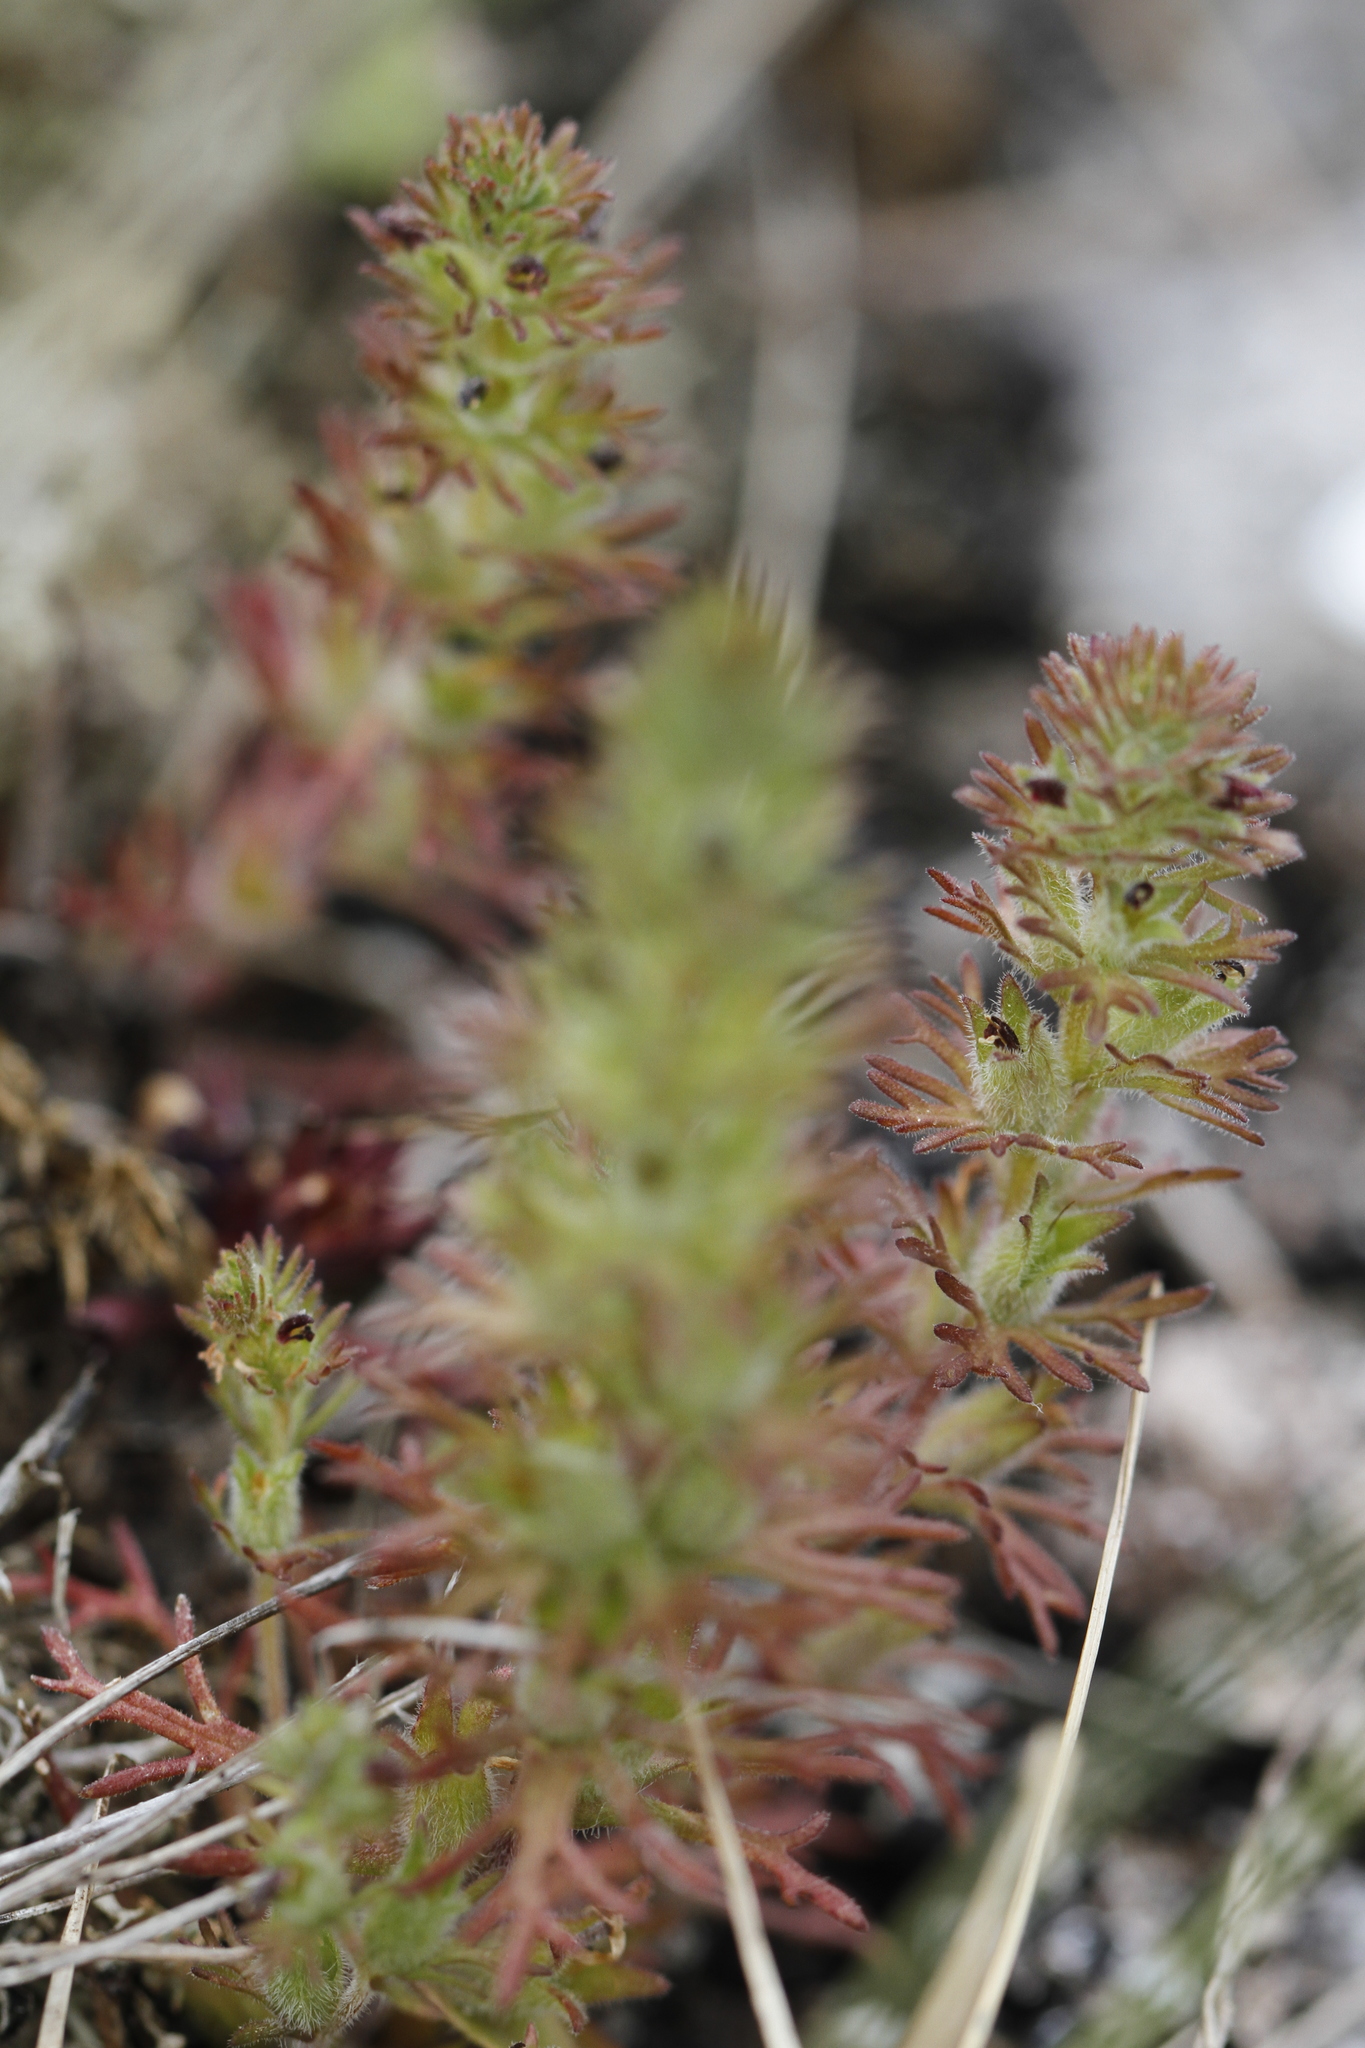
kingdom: Plantae
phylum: Tracheophyta
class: Magnoliopsida
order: Lamiales
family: Orobanchaceae
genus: Triphysaria
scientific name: Triphysaria pusilla
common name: Dwarf false owl-clover
